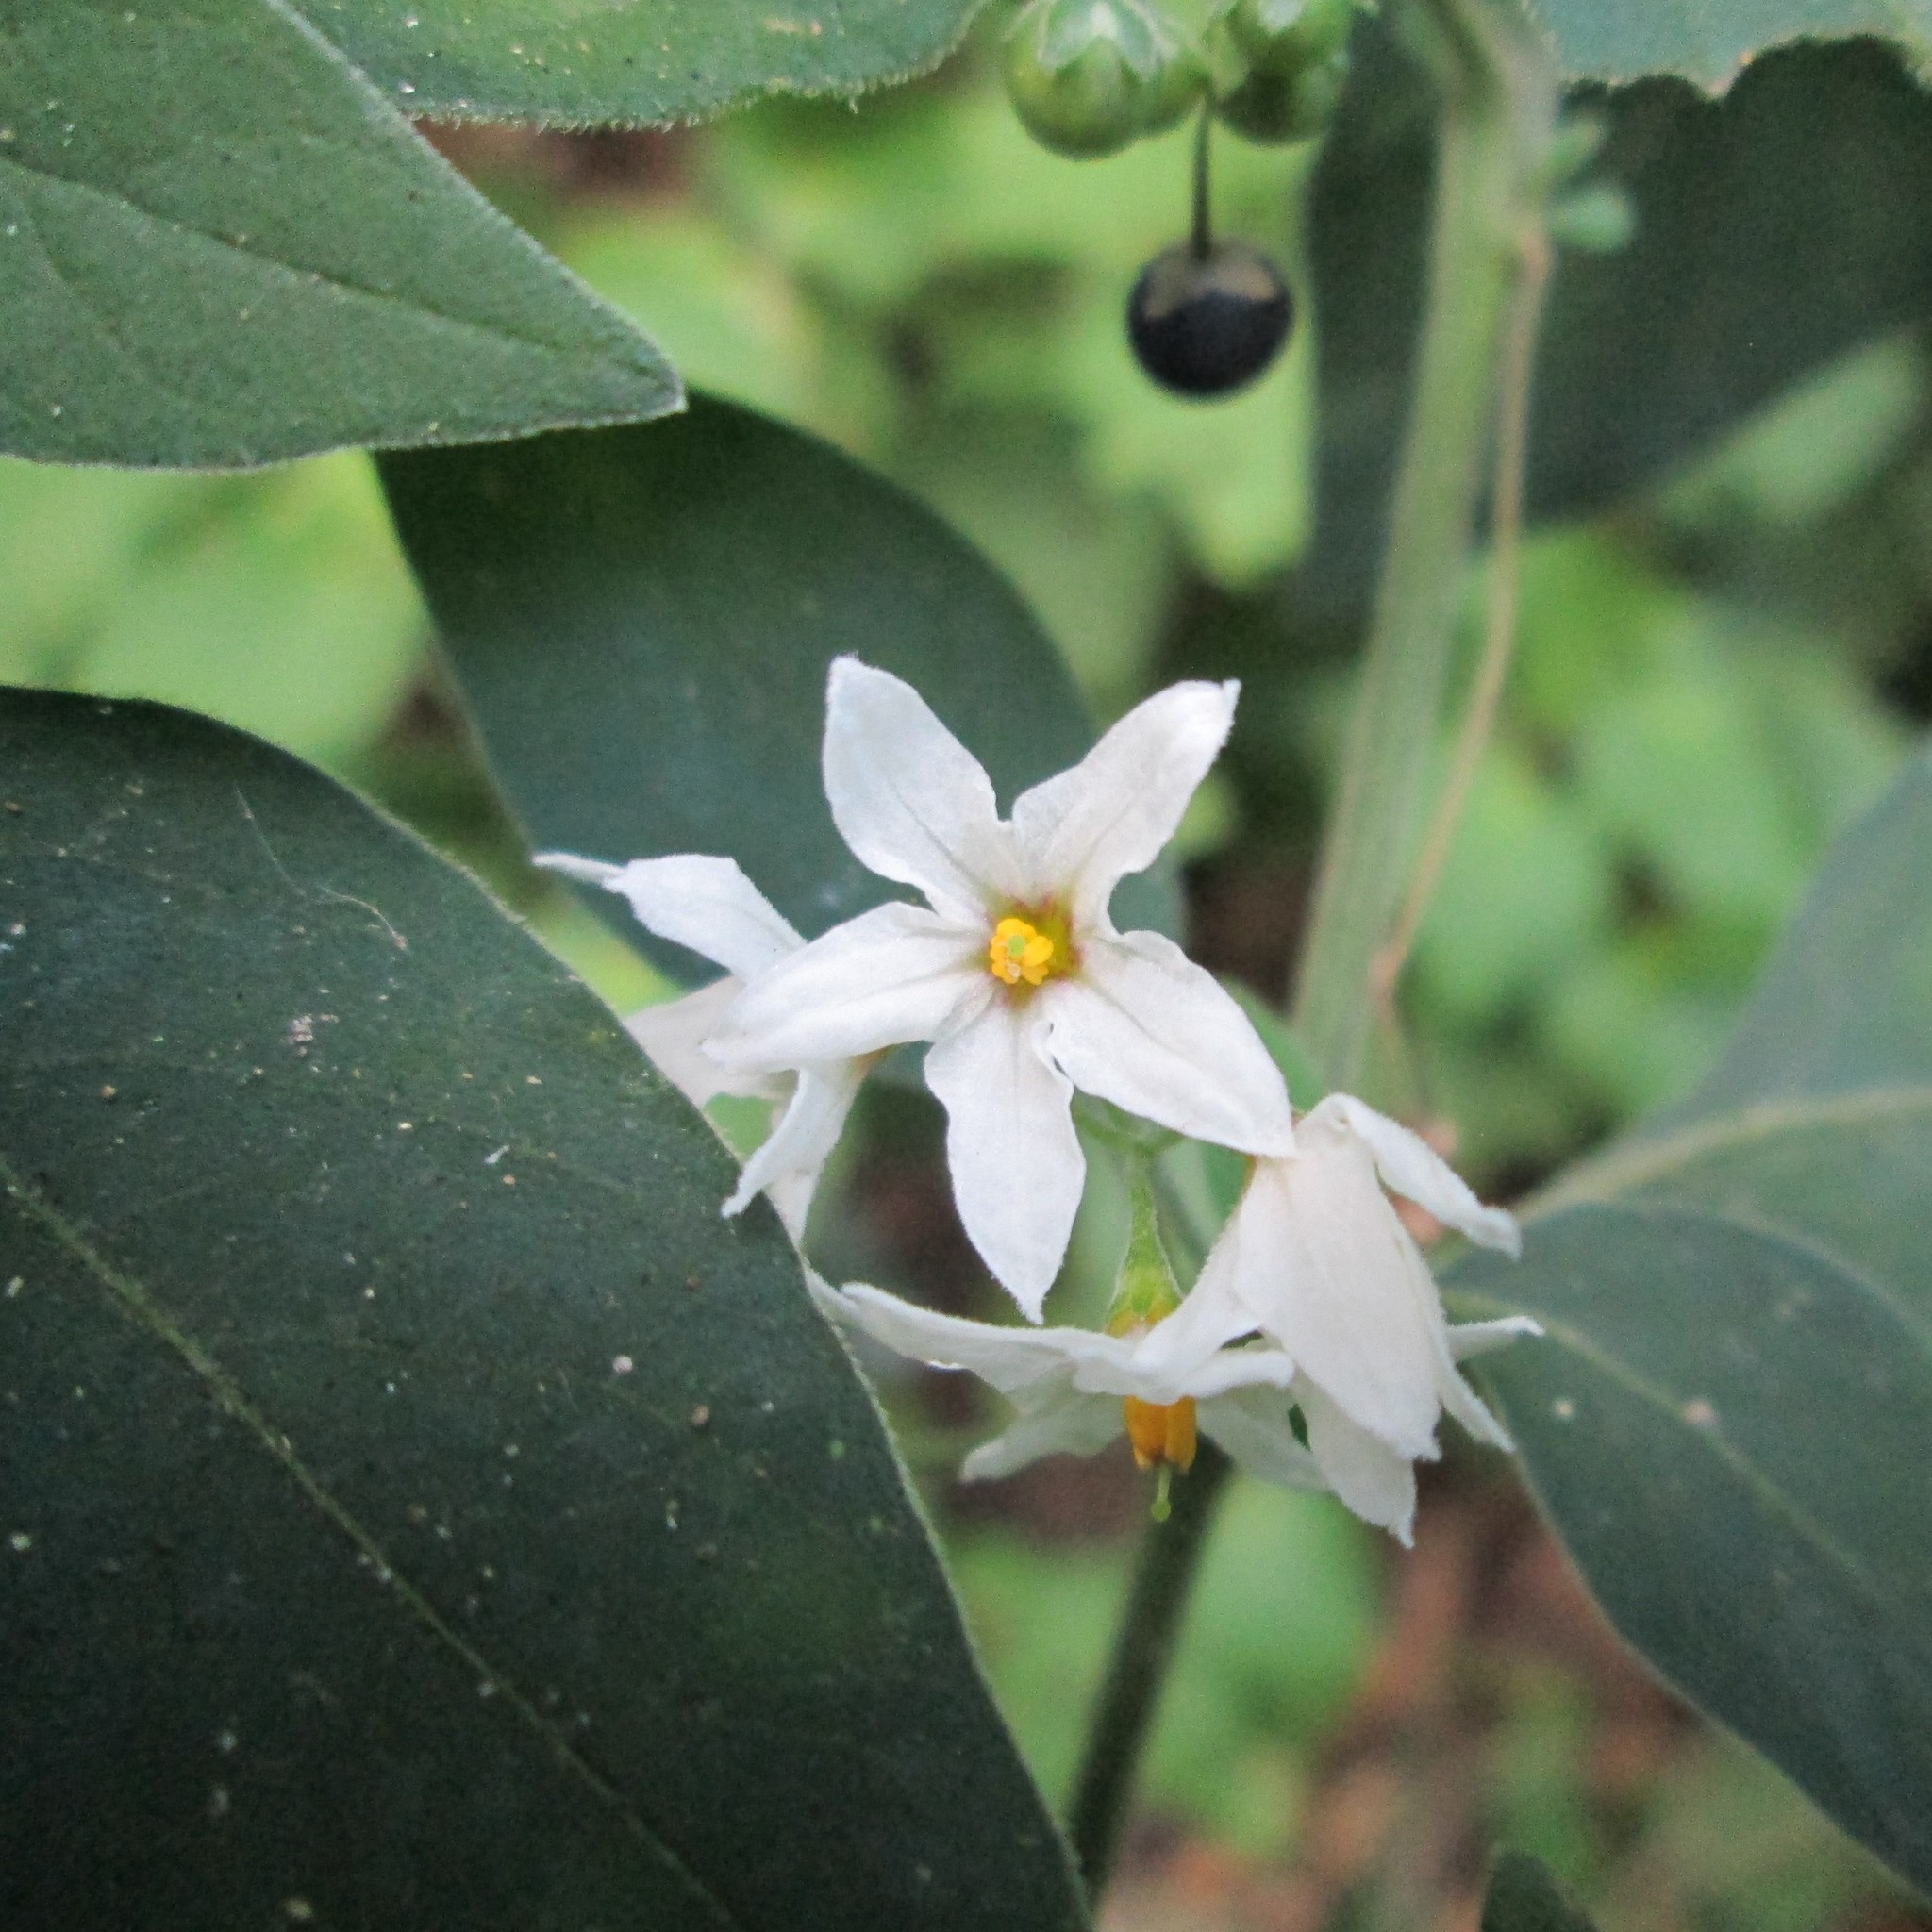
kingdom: Plantae
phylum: Tracheophyta
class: Magnoliopsida
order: Solanales
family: Solanaceae
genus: Solanum
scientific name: Solanum chenopodioides
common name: Tall nightshade
